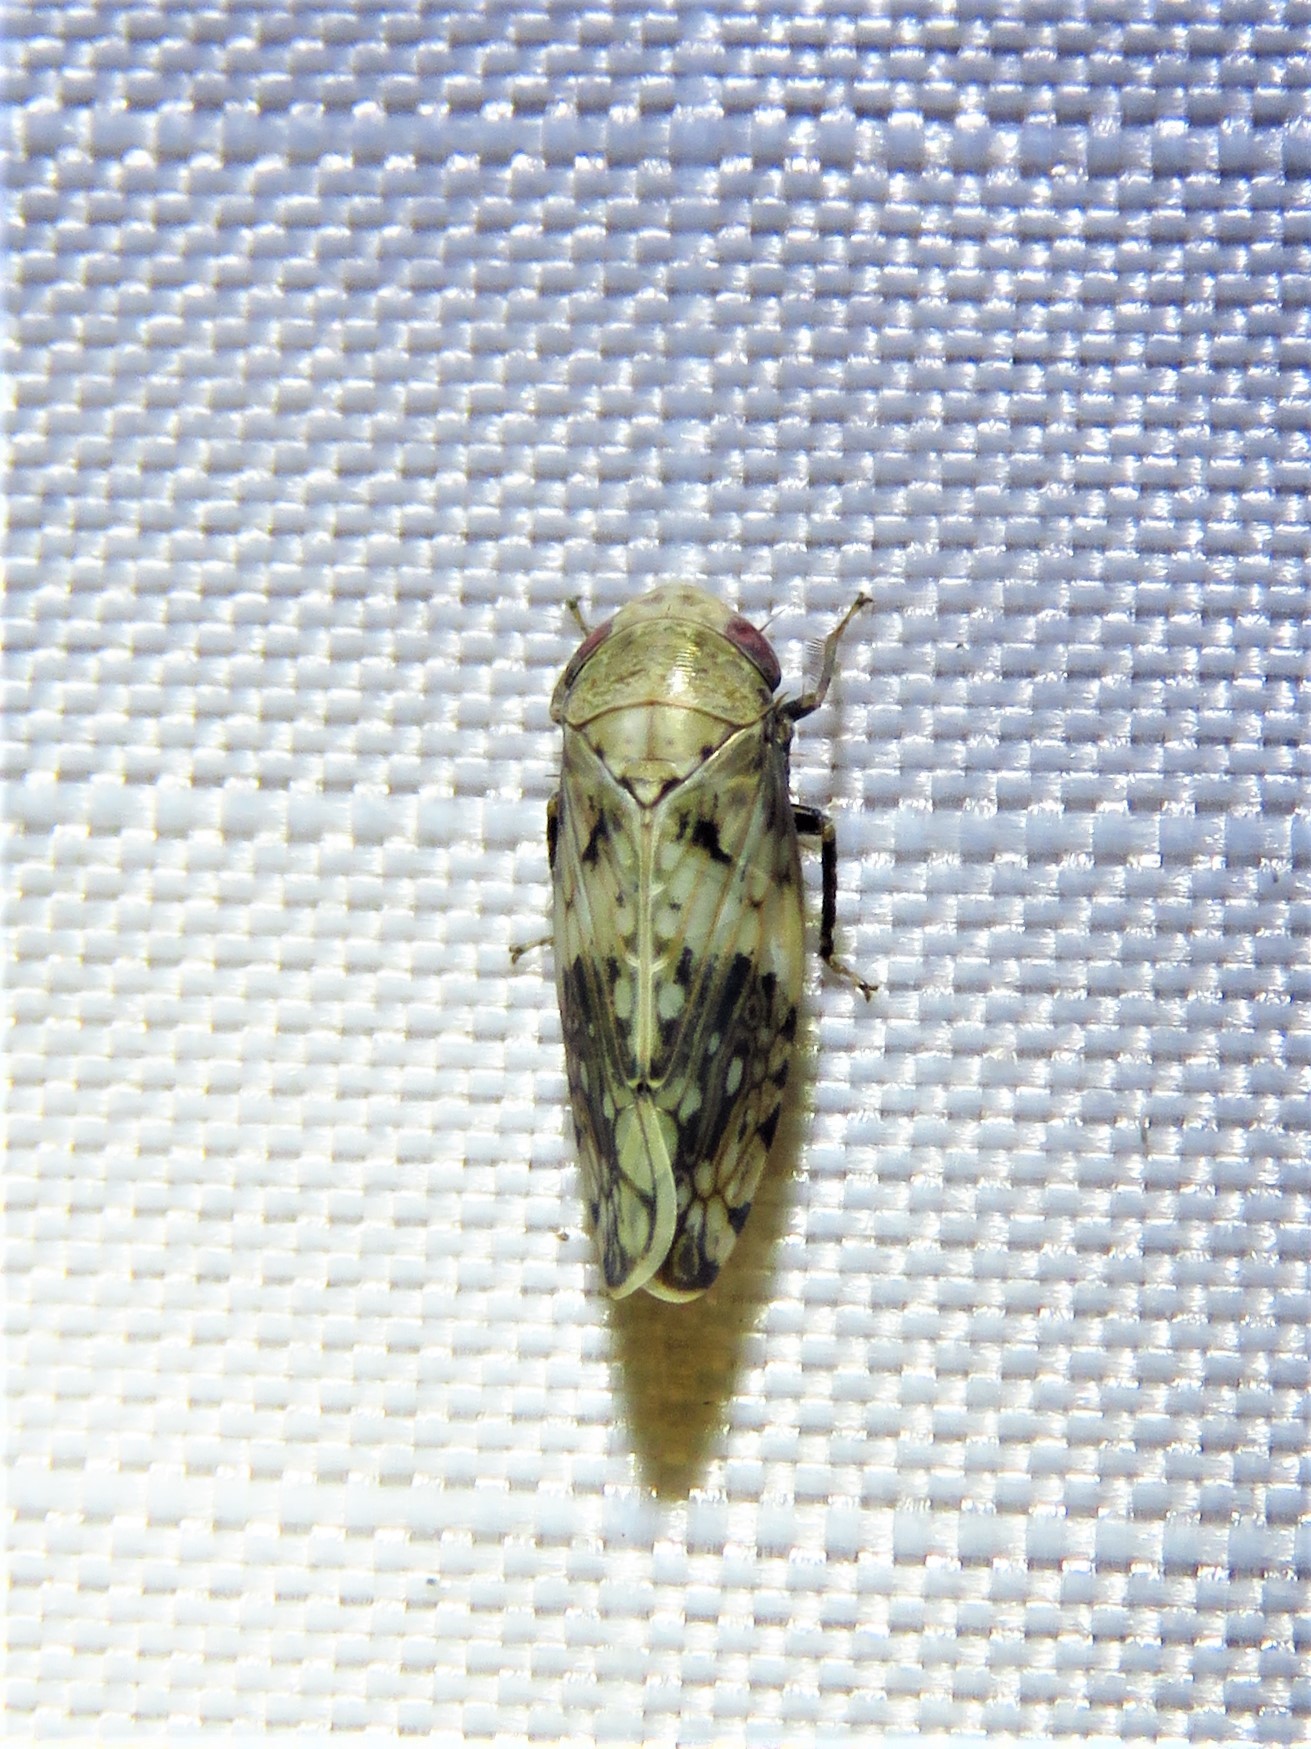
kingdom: Animalia
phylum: Arthropoda
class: Insecta
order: Hemiptera
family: Cicadellidae
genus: Menosoma
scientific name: Menosoma cinctum
